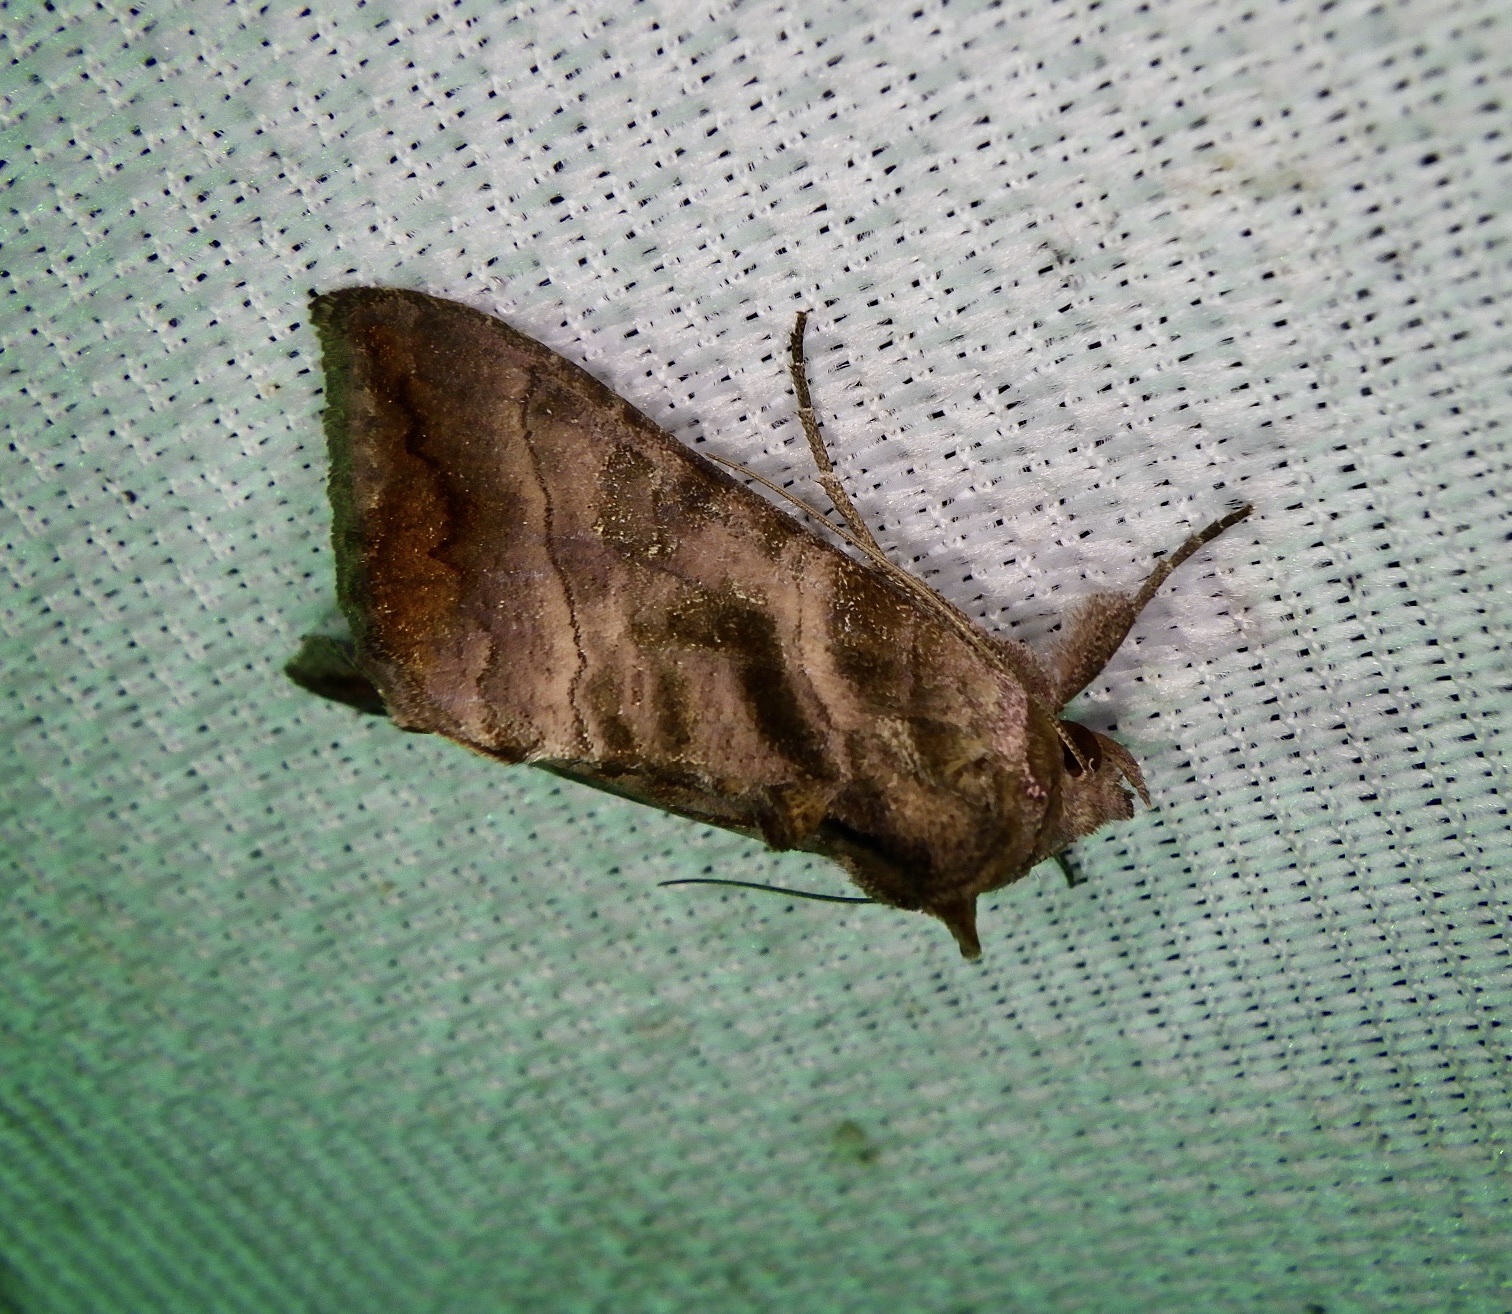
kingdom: Animalia
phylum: Arthropoda
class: Insecta
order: Lepidoptera
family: Noctuidae
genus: Anadevidia
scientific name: Anadevidia hebetata
